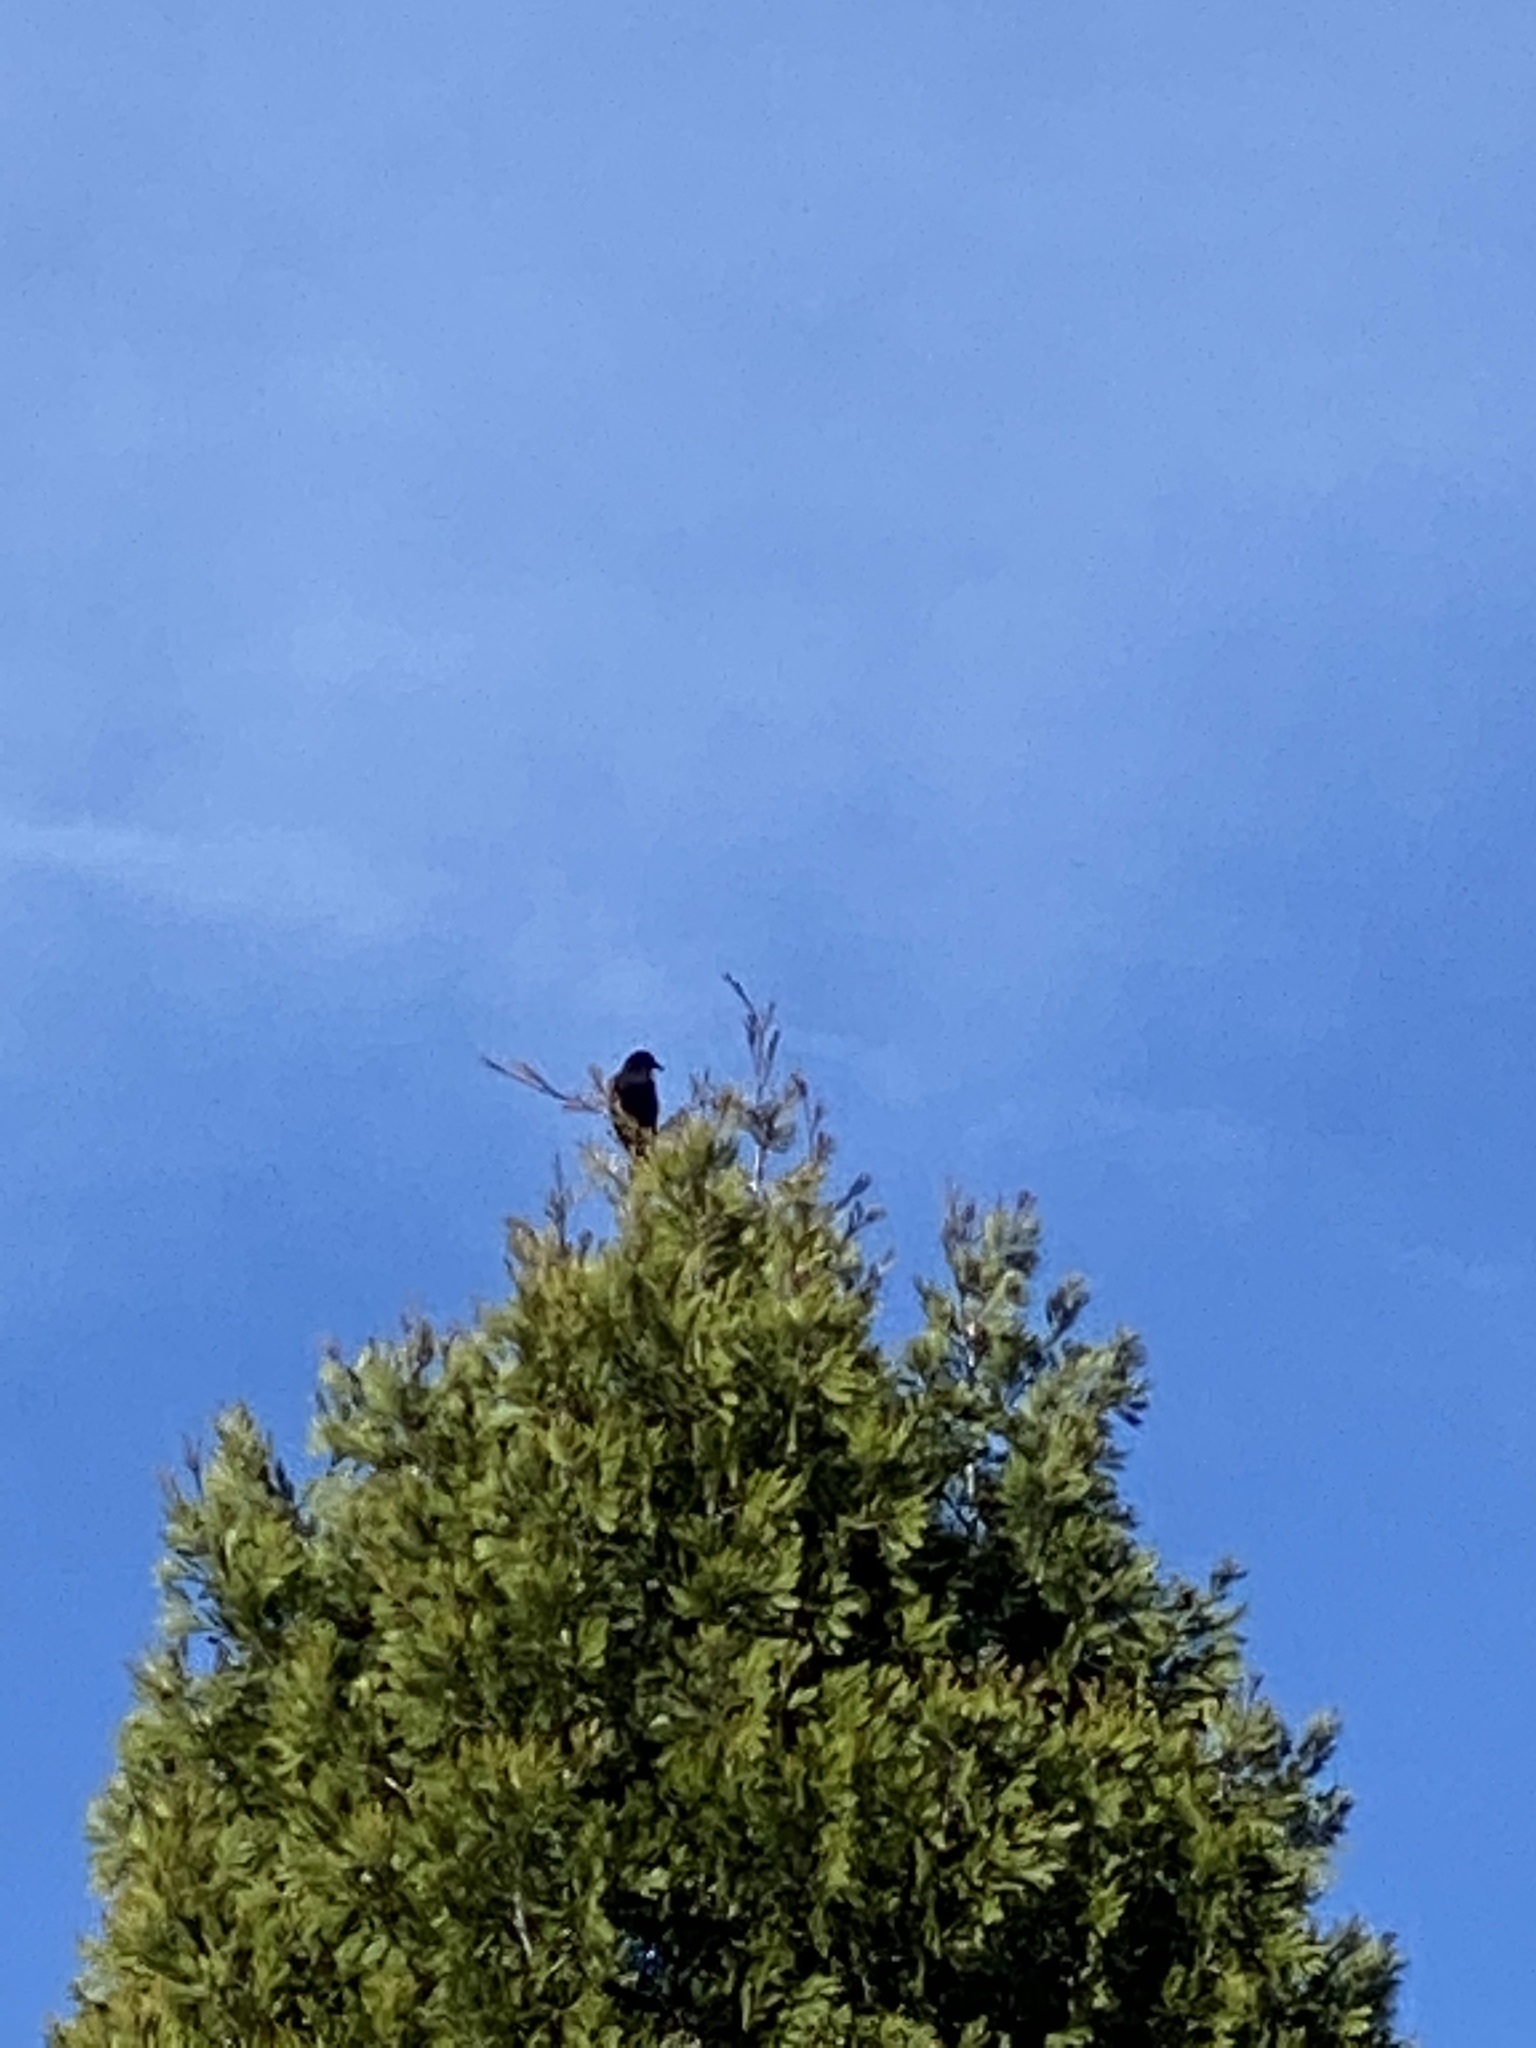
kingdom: Animalia
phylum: Chordata
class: Aves
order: Passeriformes
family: Corvidae
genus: Corvus
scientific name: Corvus brachyrhynchos
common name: American crow
